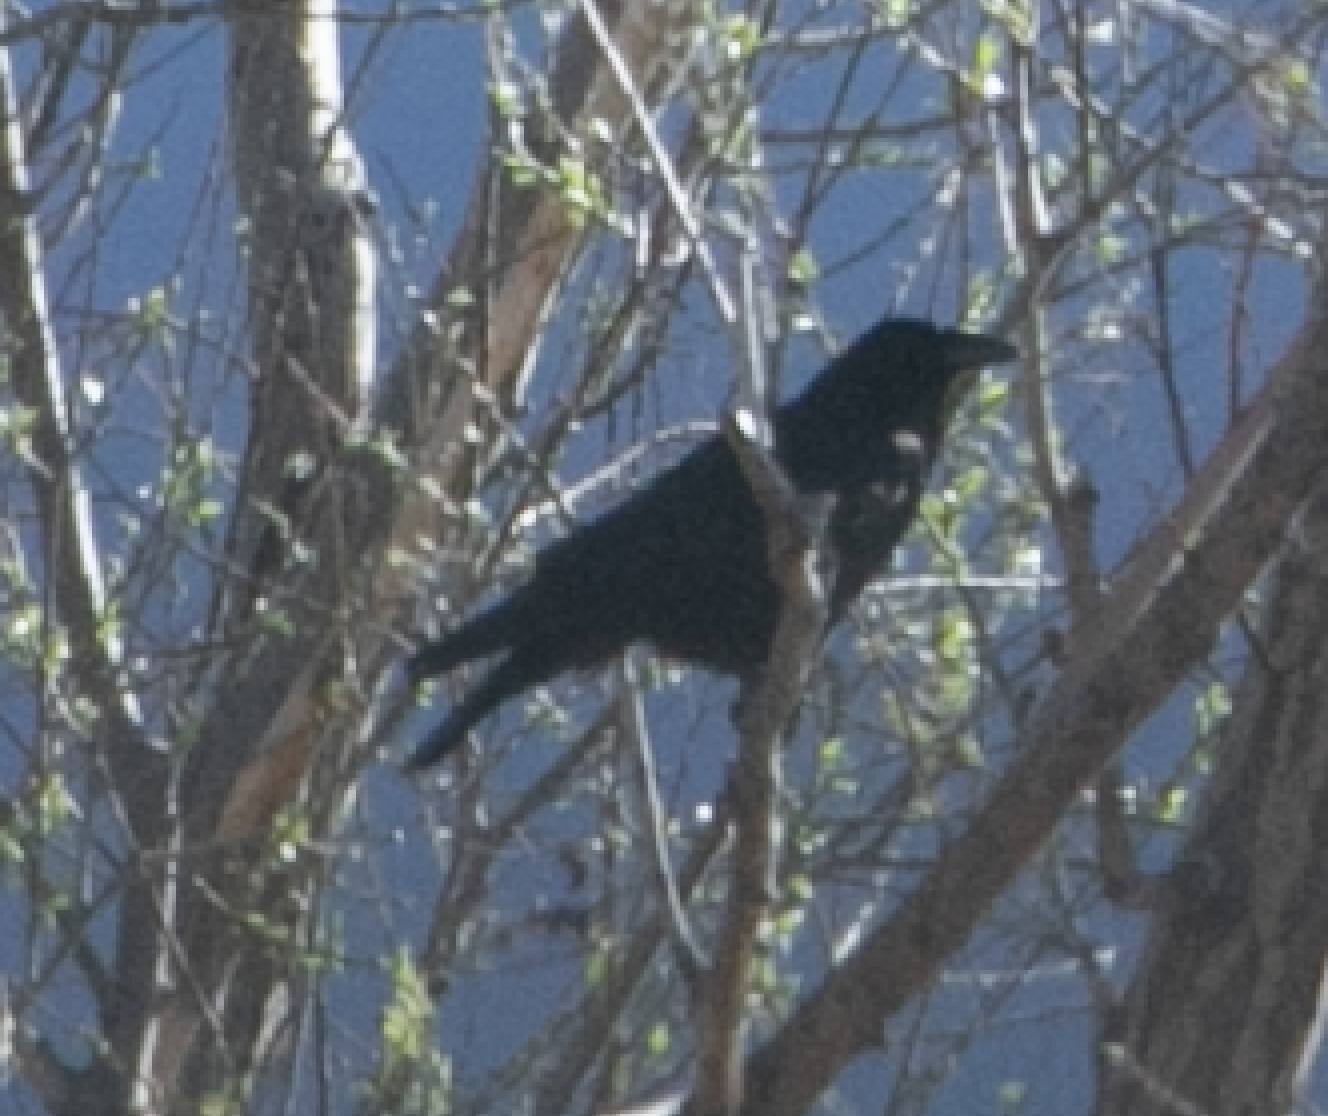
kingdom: Animalia
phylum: Chordata
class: Aves
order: Passeriformes
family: Corvidae
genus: Corvus
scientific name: Corvus corone
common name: Carrion crow
